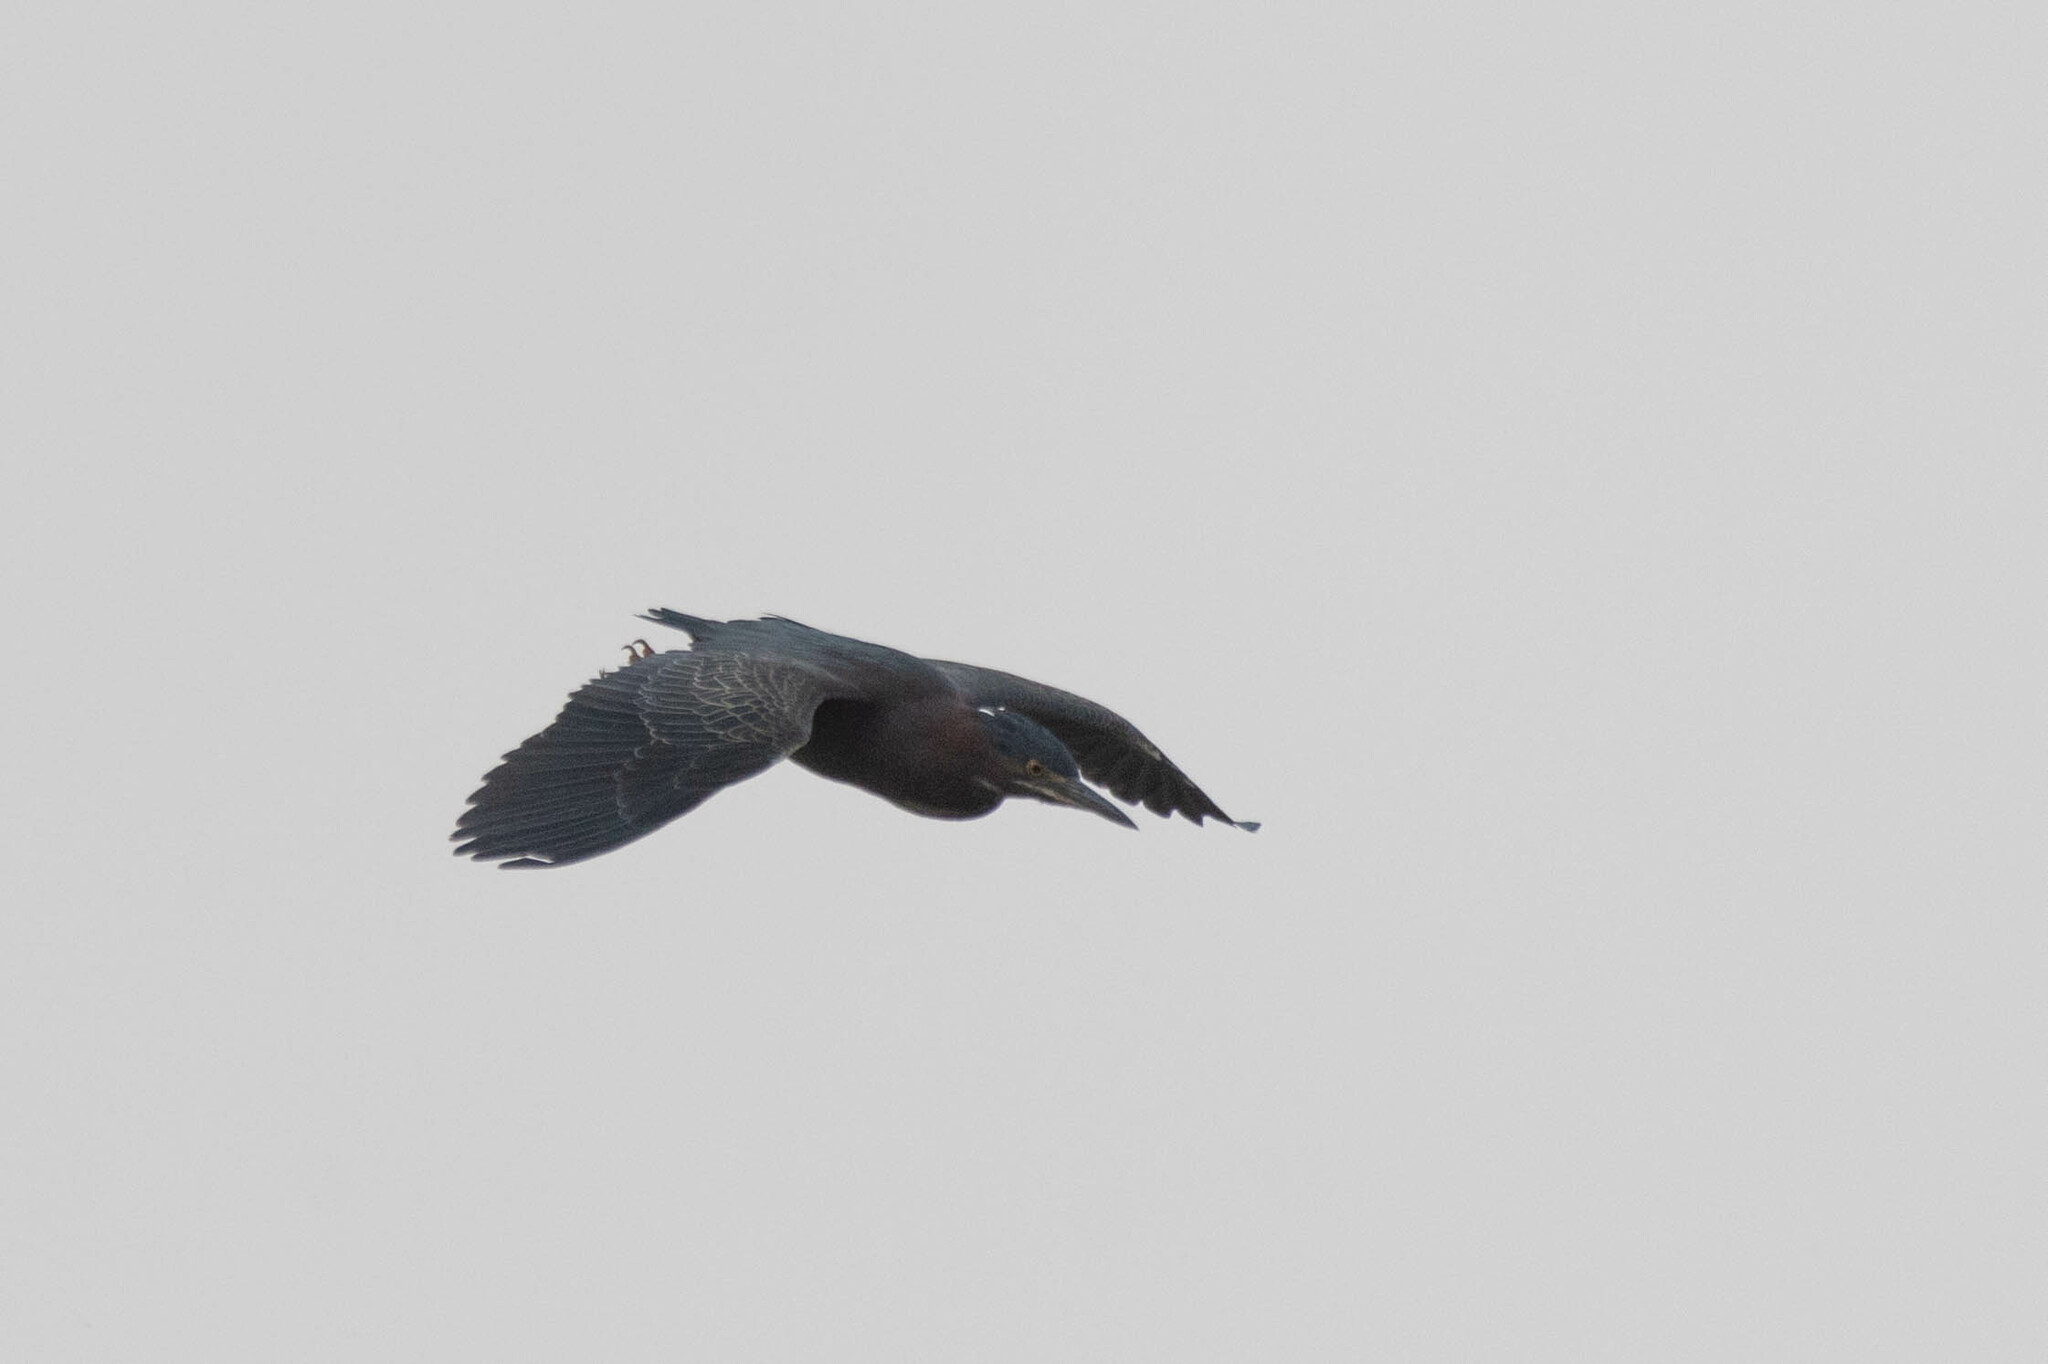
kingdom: Animalia
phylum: Chordata
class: Aves
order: Pelecaniformes
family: Ardeidae
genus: Butorides
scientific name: Butorides virescens
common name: Green heron
